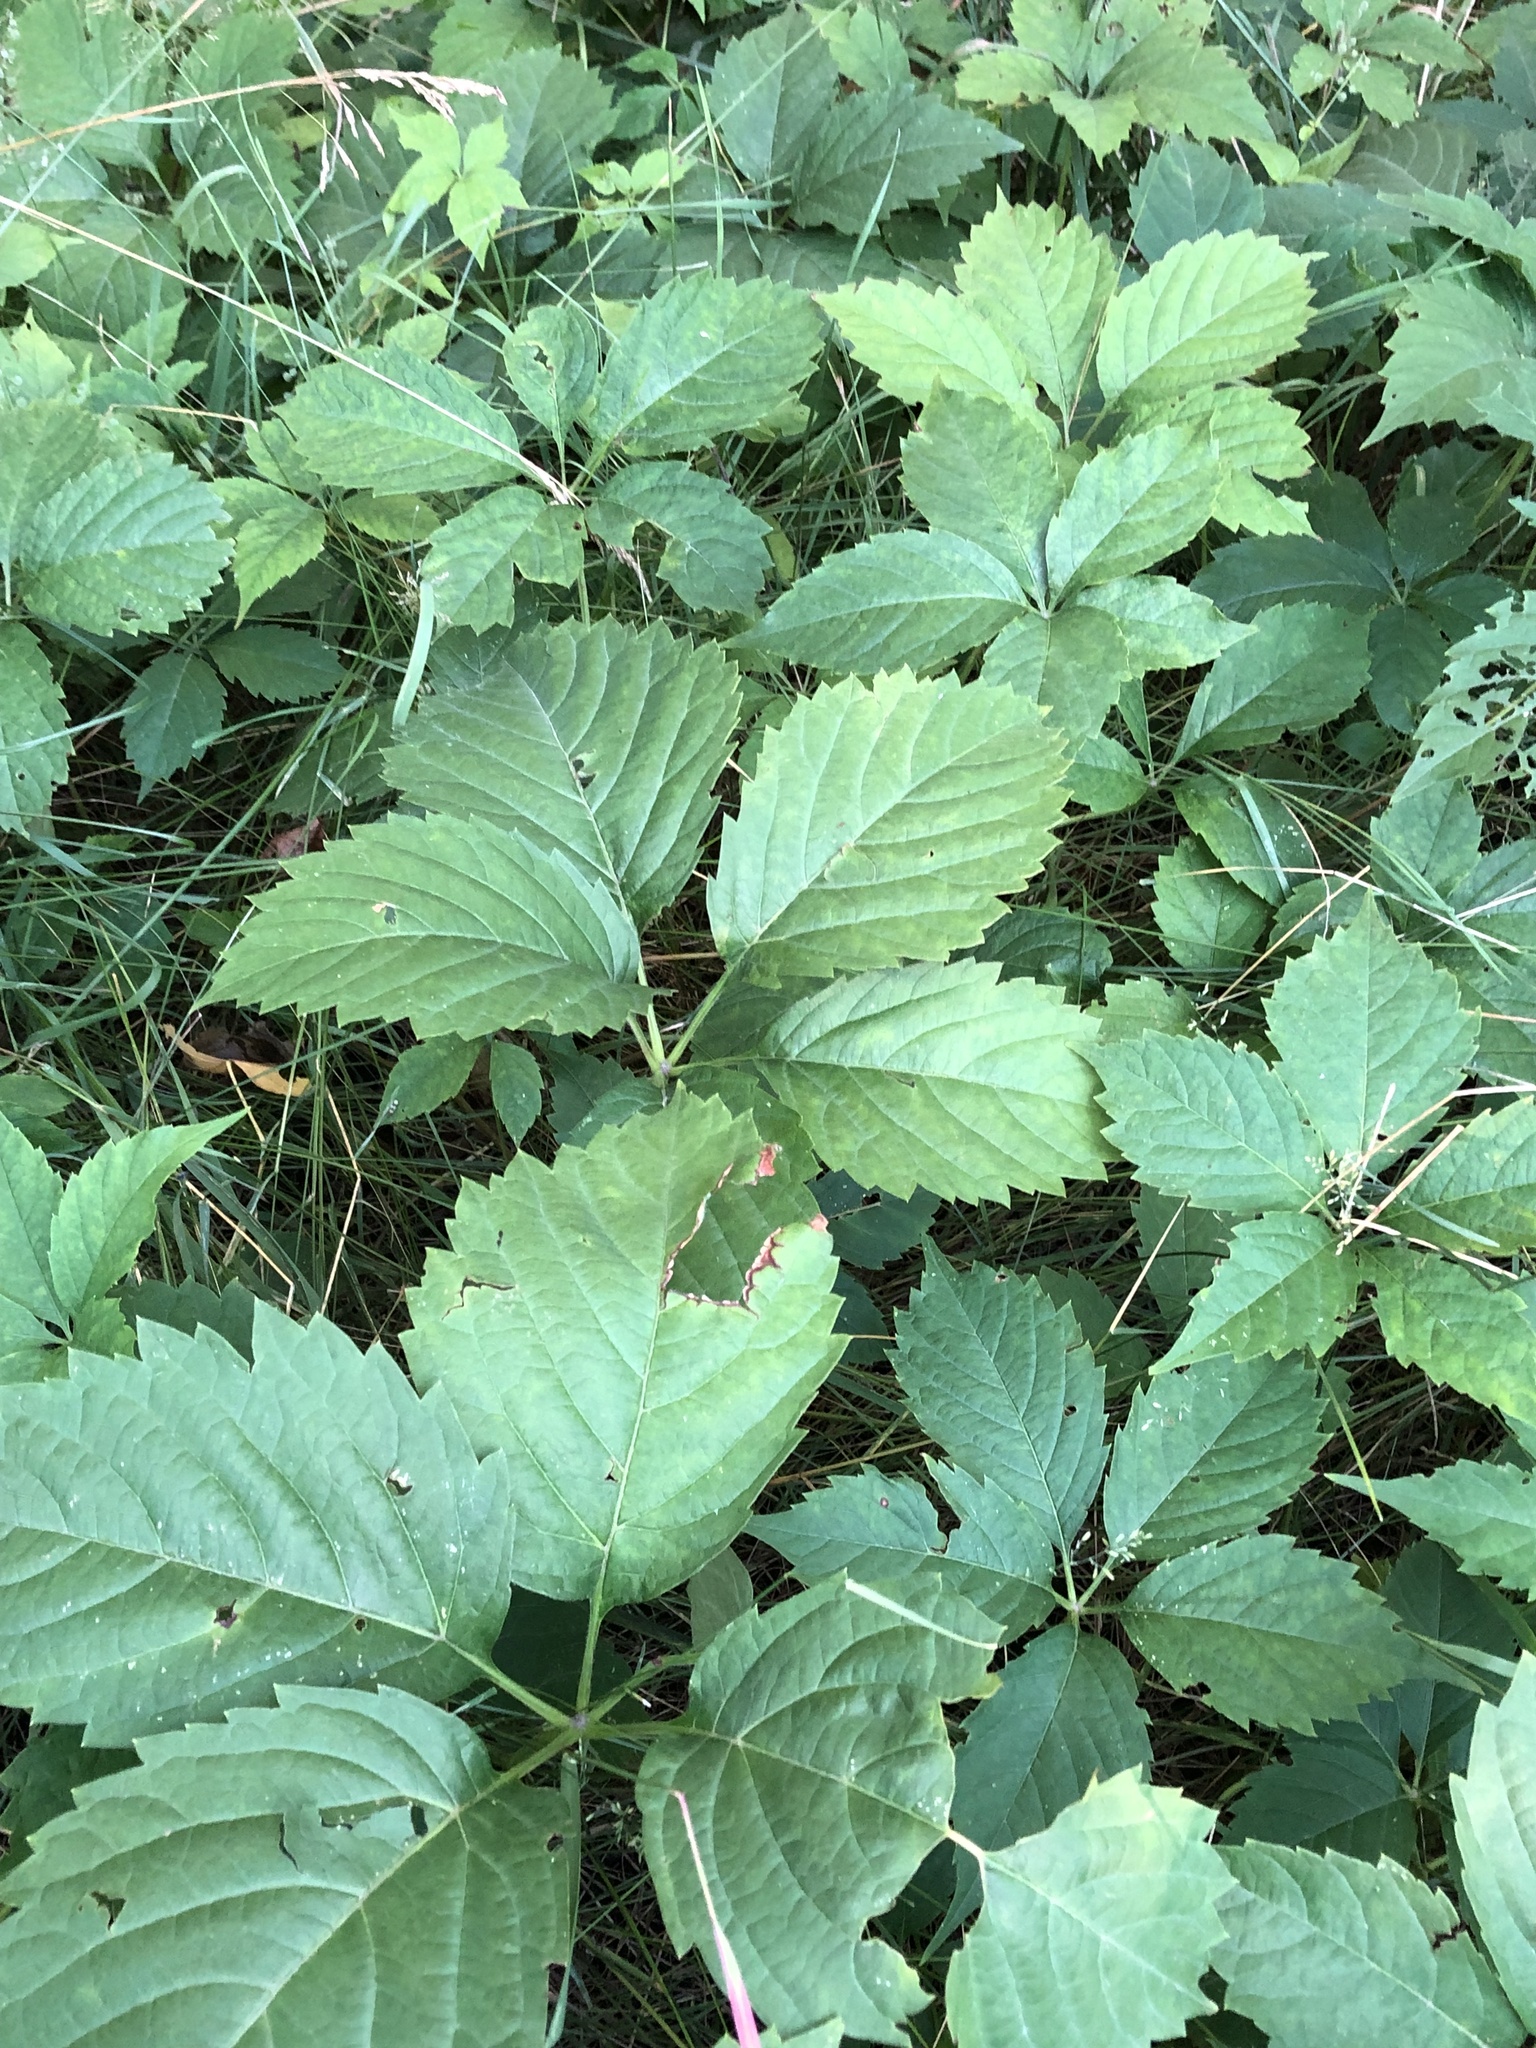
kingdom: Plantae
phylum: Tracheophyta
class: Magnoliopsida
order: Vitales
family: Vitaceae
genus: Parthenocissus
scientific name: Parthenocissus inserta
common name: False virginia-creeper
